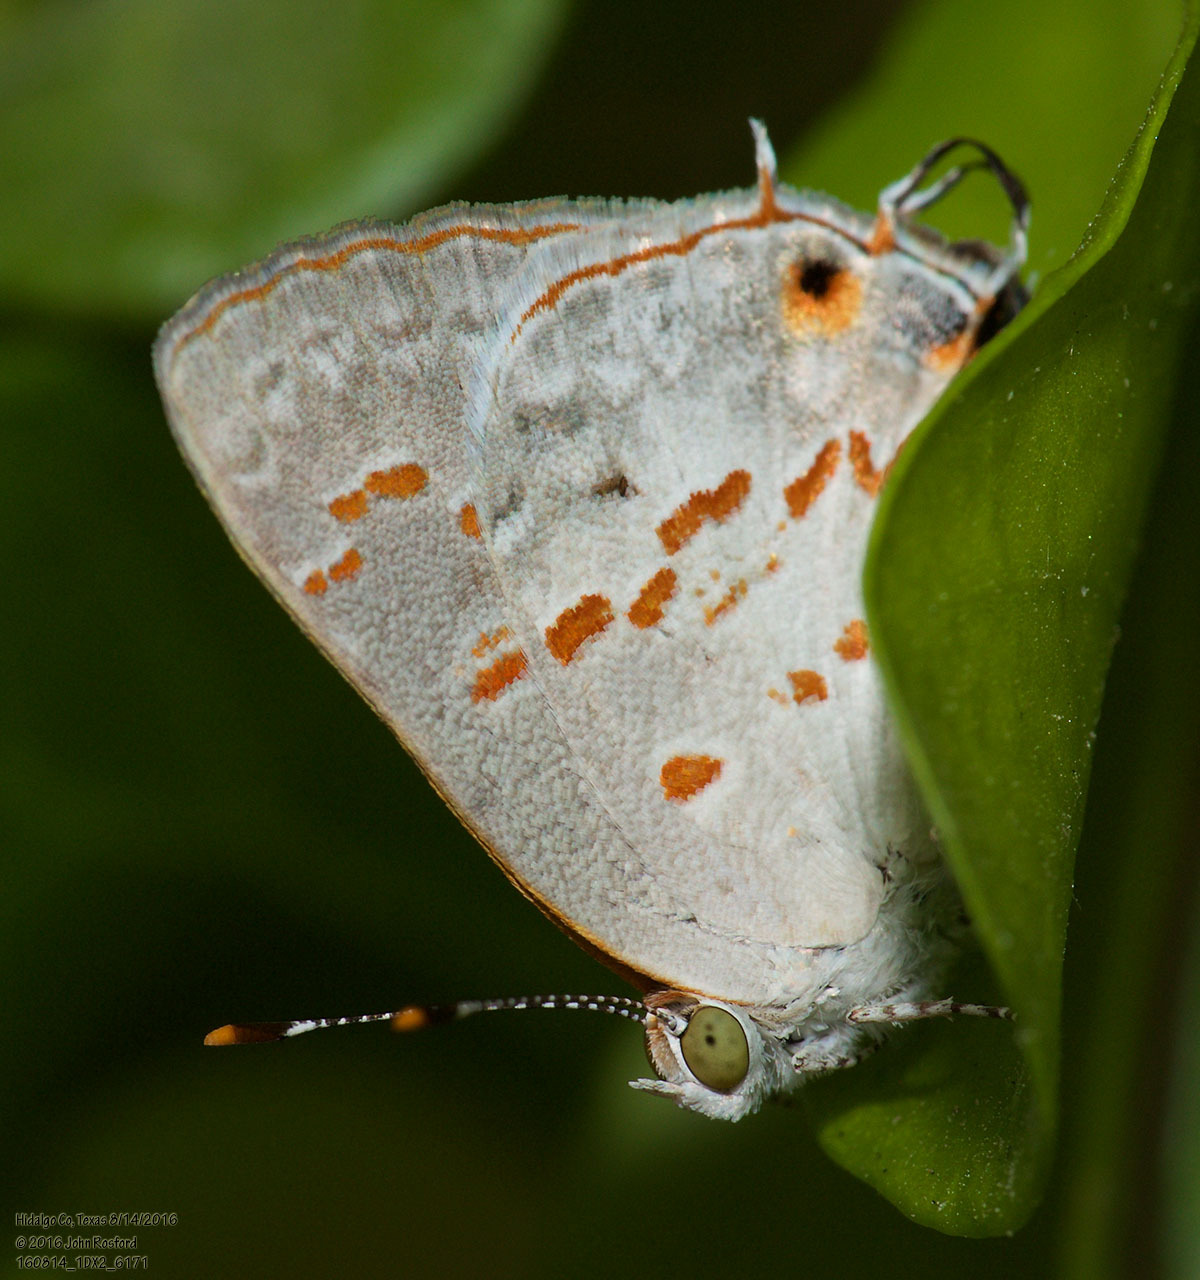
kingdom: Animalia
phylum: Arthropoda
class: Insecta
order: Lepidoptera
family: Lycaenidae
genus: Ministrymon
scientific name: Ministrymon clytie
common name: Clytie ministreak
